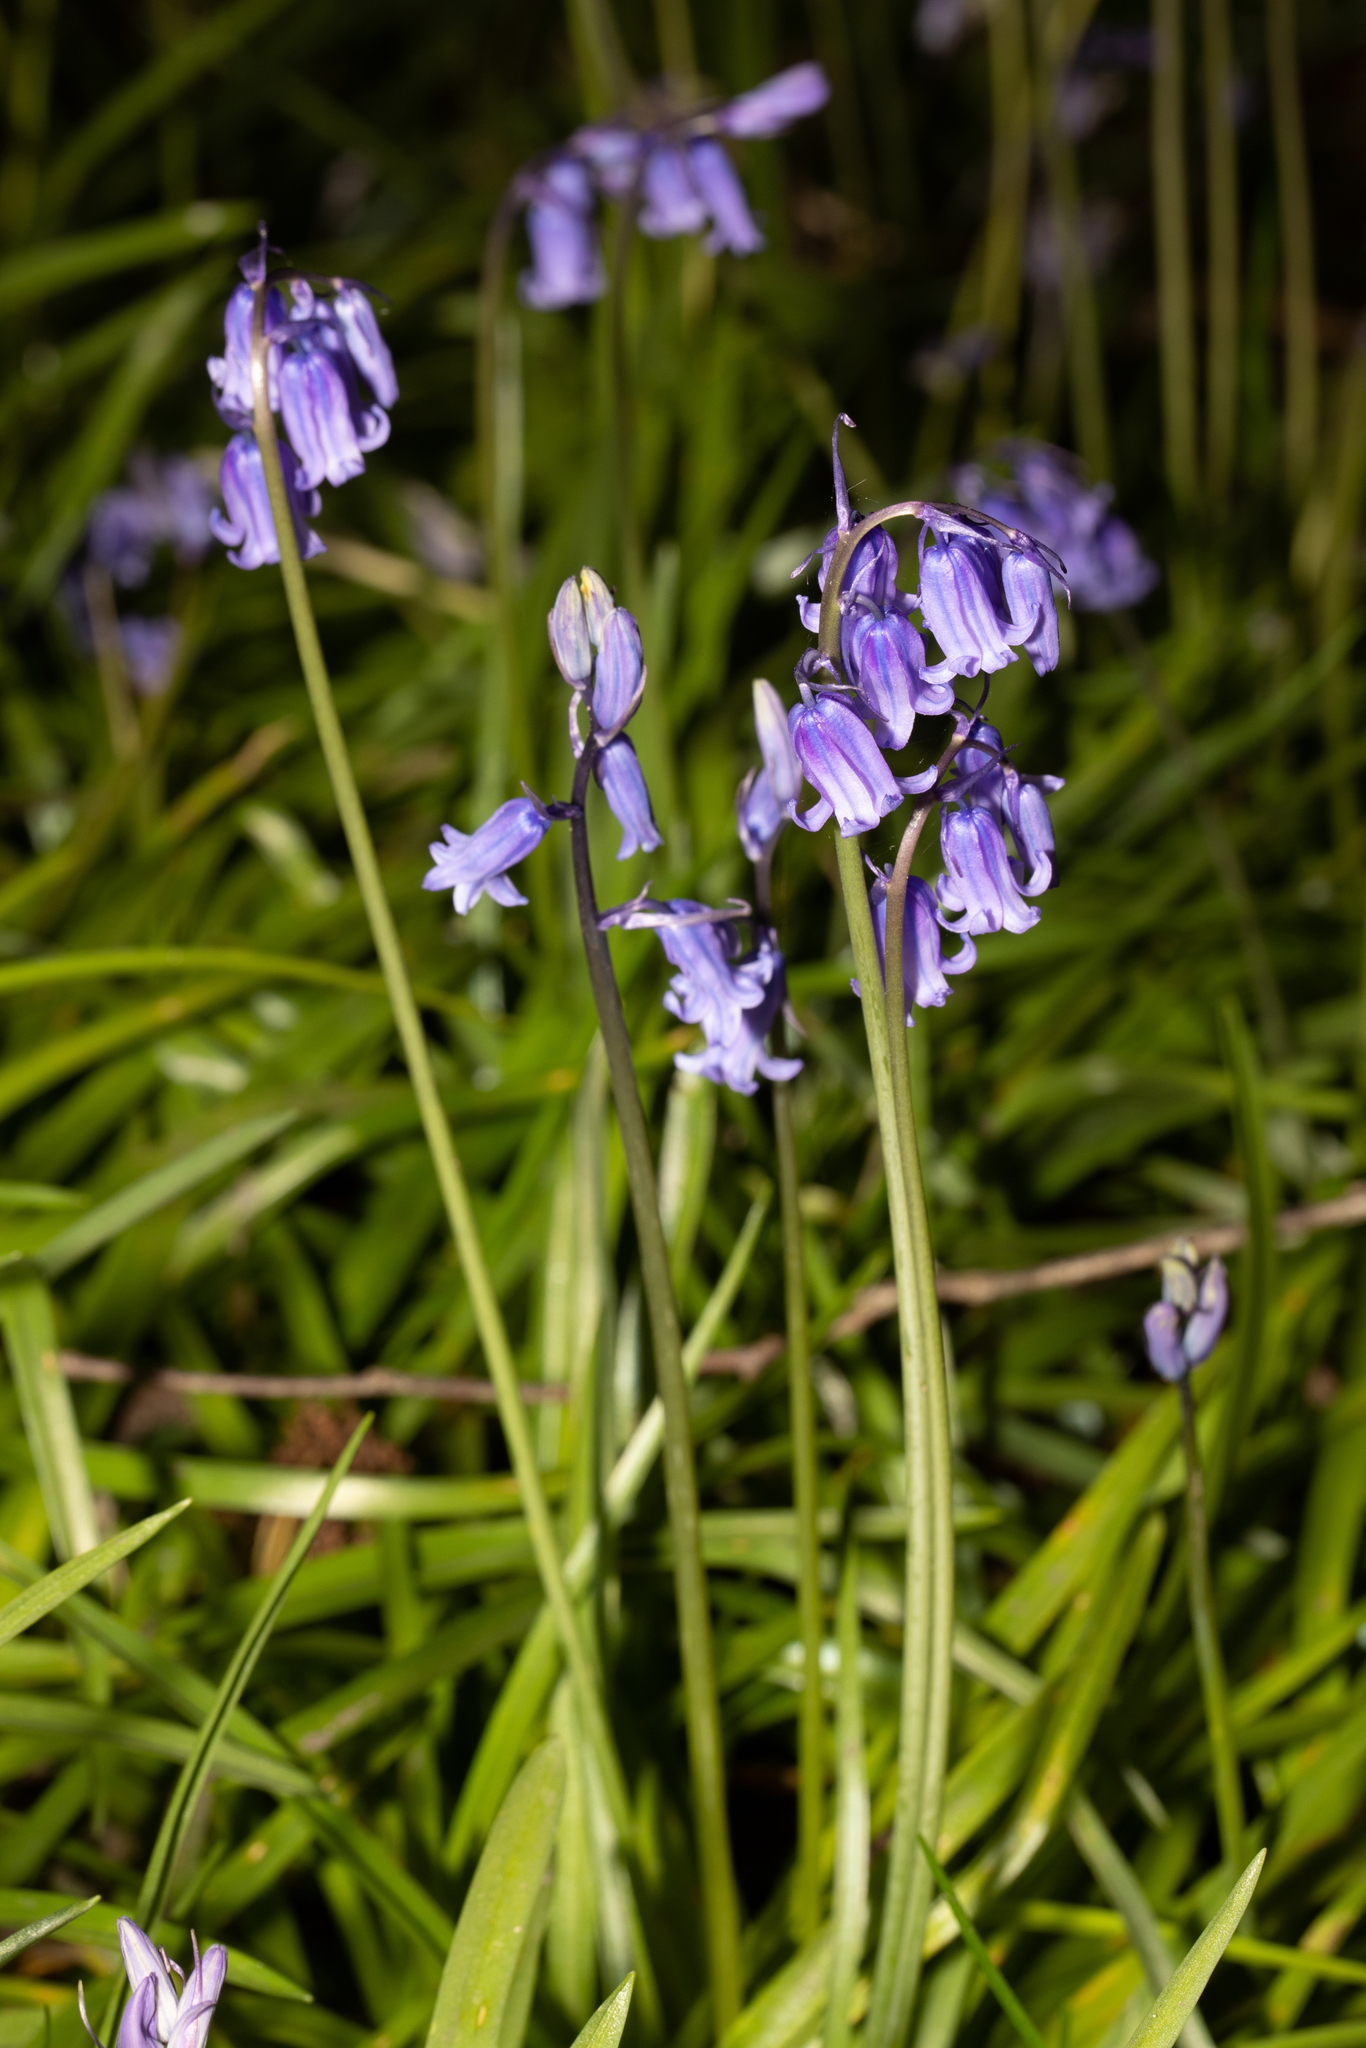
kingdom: Plantae
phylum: Tracheophyta
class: Liliopsida
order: Asparagales
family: Asparagaceae
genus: Hyacinthoides
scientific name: Hyacinthoides non-scripta
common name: Bluebell
